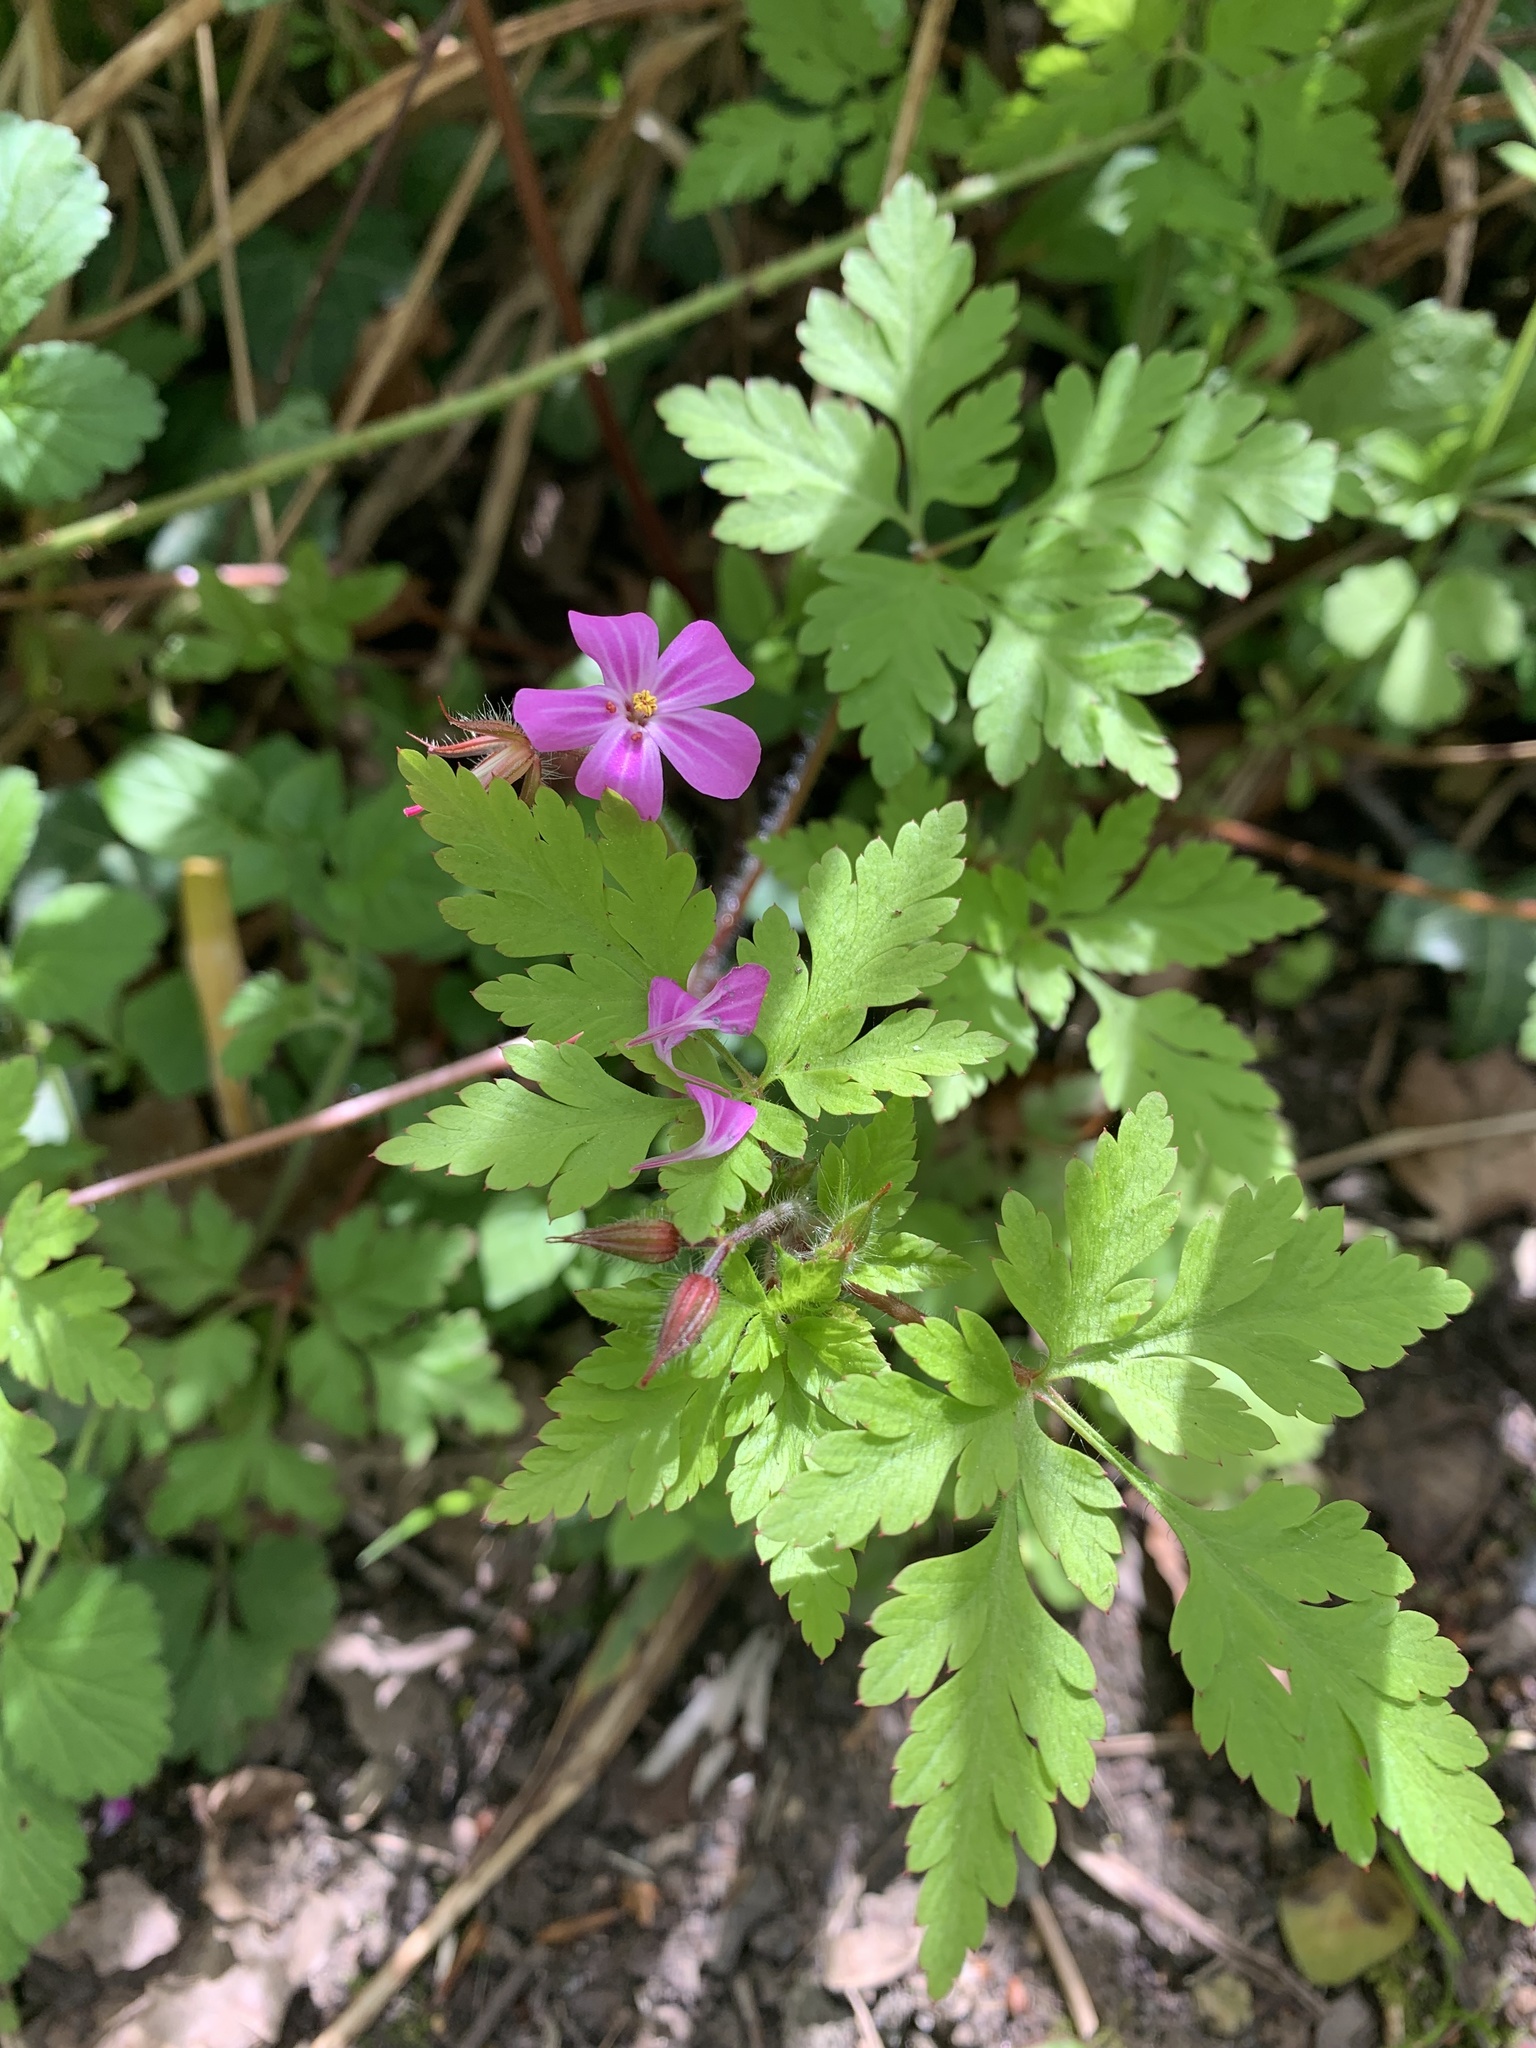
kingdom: Plantae
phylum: Tracheophyta
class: Magnoliopsida
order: Geraniales
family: Geraniaceae
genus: Geranium
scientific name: Geranium robertianum
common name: Herb-robert
